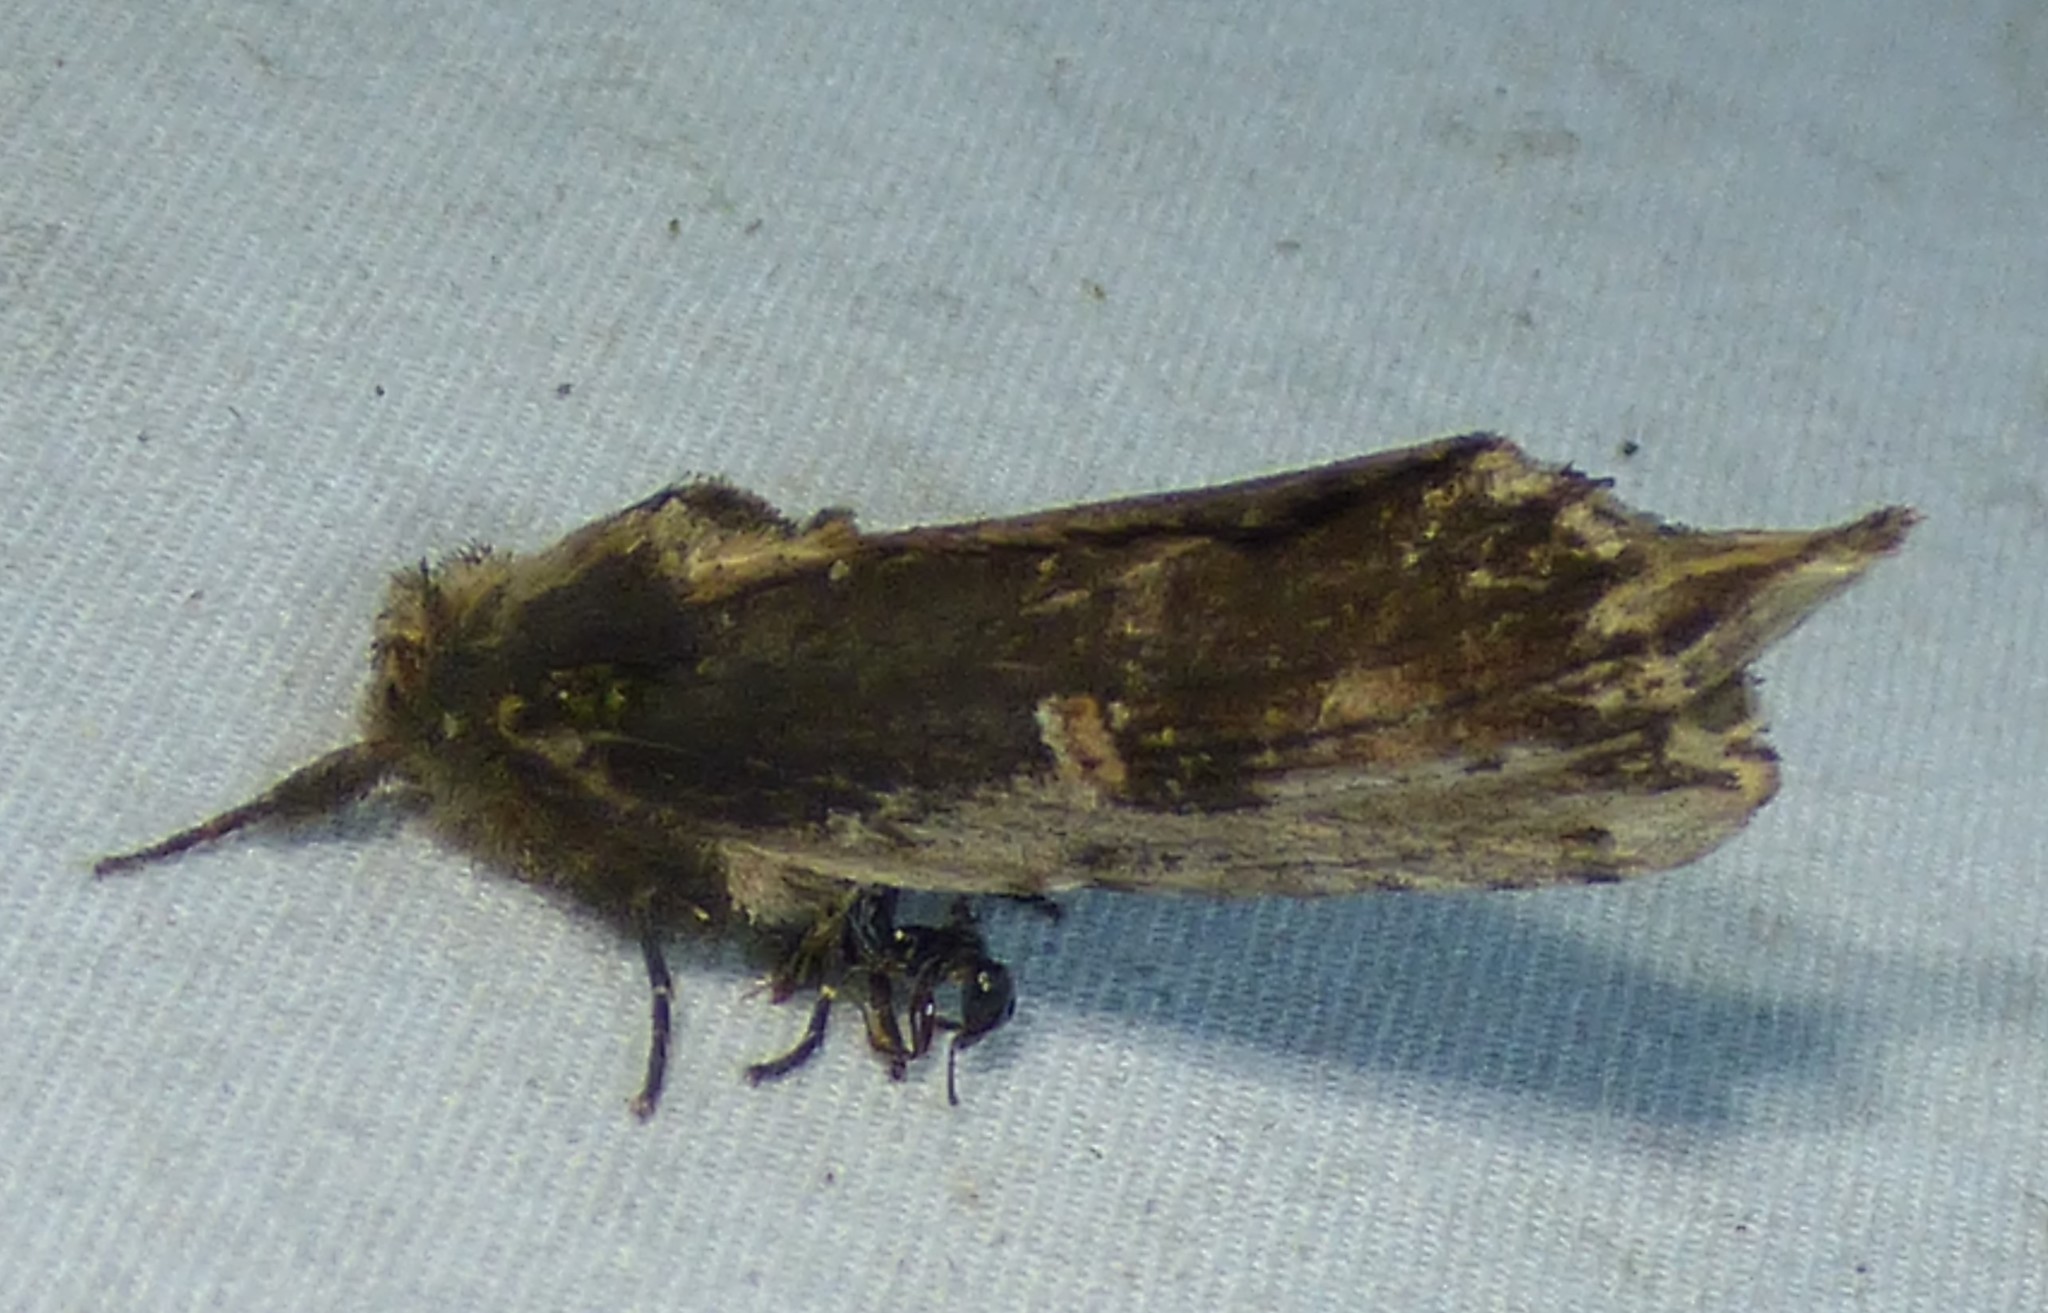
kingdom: Animalia
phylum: Arthropoda
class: Insecta
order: Lepidoptera
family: Notodontidae
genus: Schizura
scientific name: Schizura ipomaeae
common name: Morning-glory prominent
